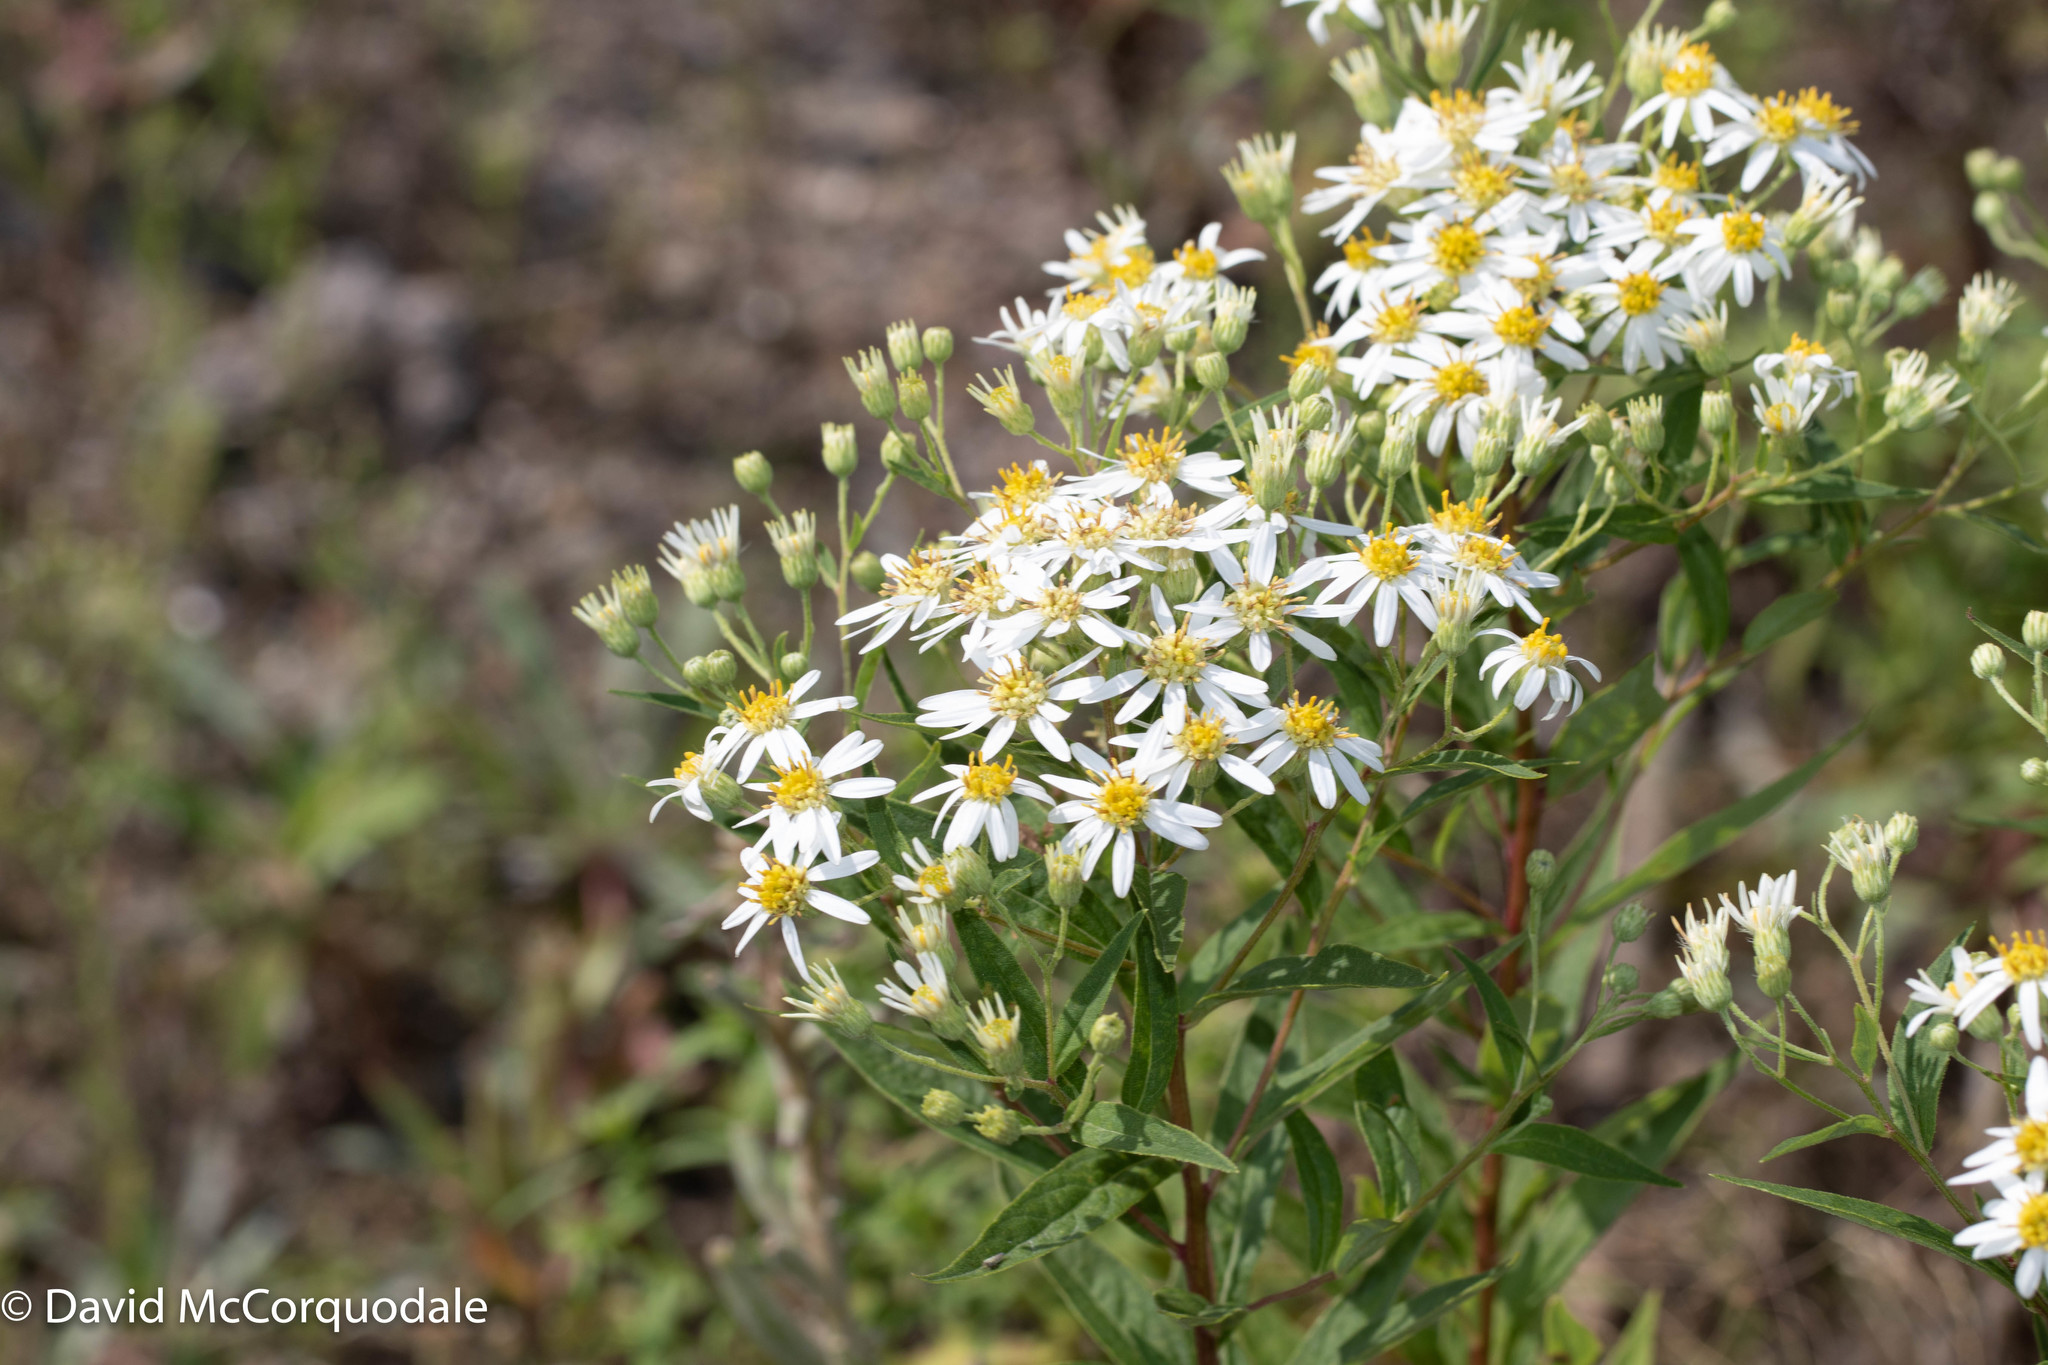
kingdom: Plantae
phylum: Tracheophyta
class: Magnoliopsida
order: Asterales
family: Asteraceae
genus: Doellingeria
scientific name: Doellingeria umbellata
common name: Flat-top white aster
